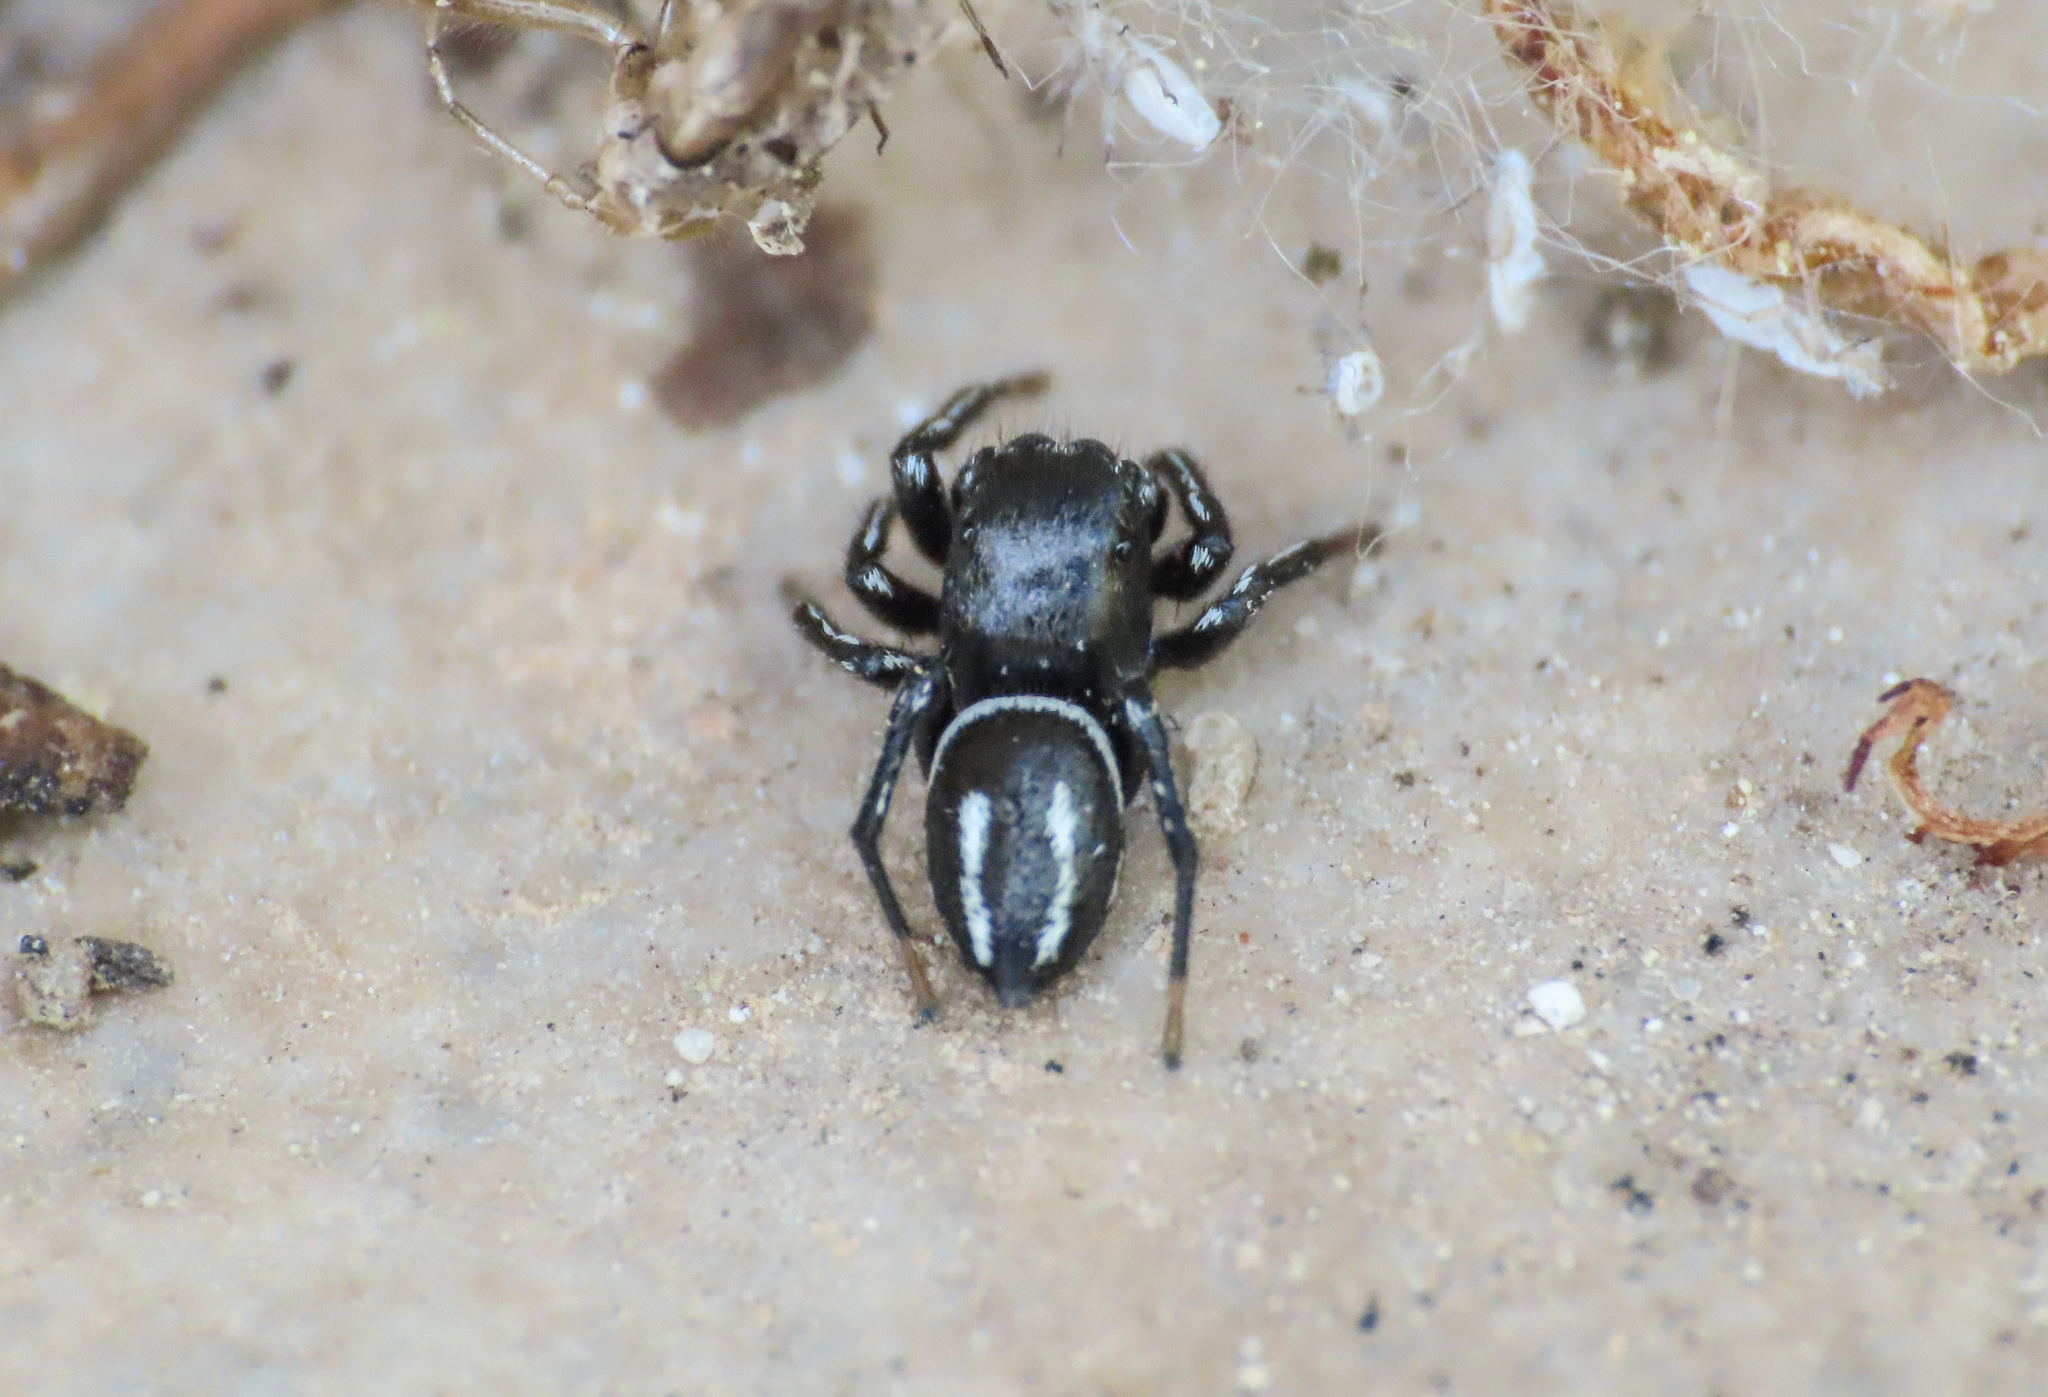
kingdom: Animalia
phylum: Arthropoda
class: Arachnida
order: Araneae
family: Salticidae
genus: Heliophanus
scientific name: Heliophanus melinus
